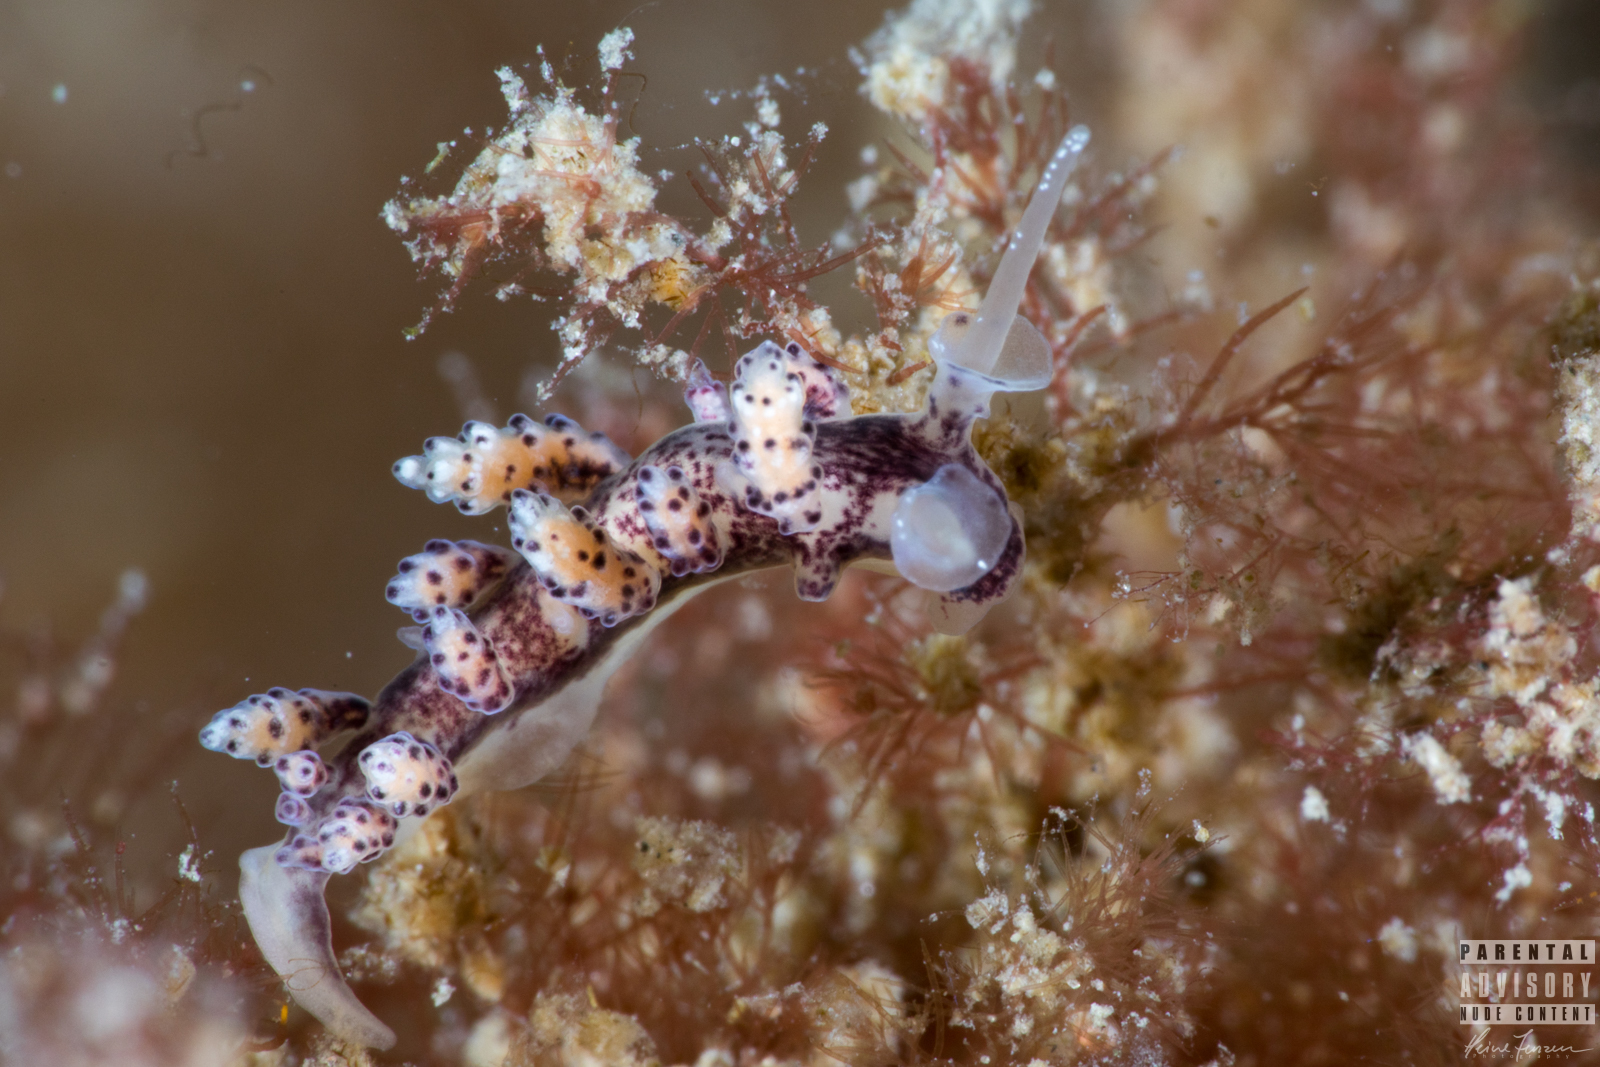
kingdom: Animalia
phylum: Mollusca
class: Gastropoda
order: Nudibranchia
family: Dotidae
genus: Doto
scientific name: Doto coronata
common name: Coronate doto
